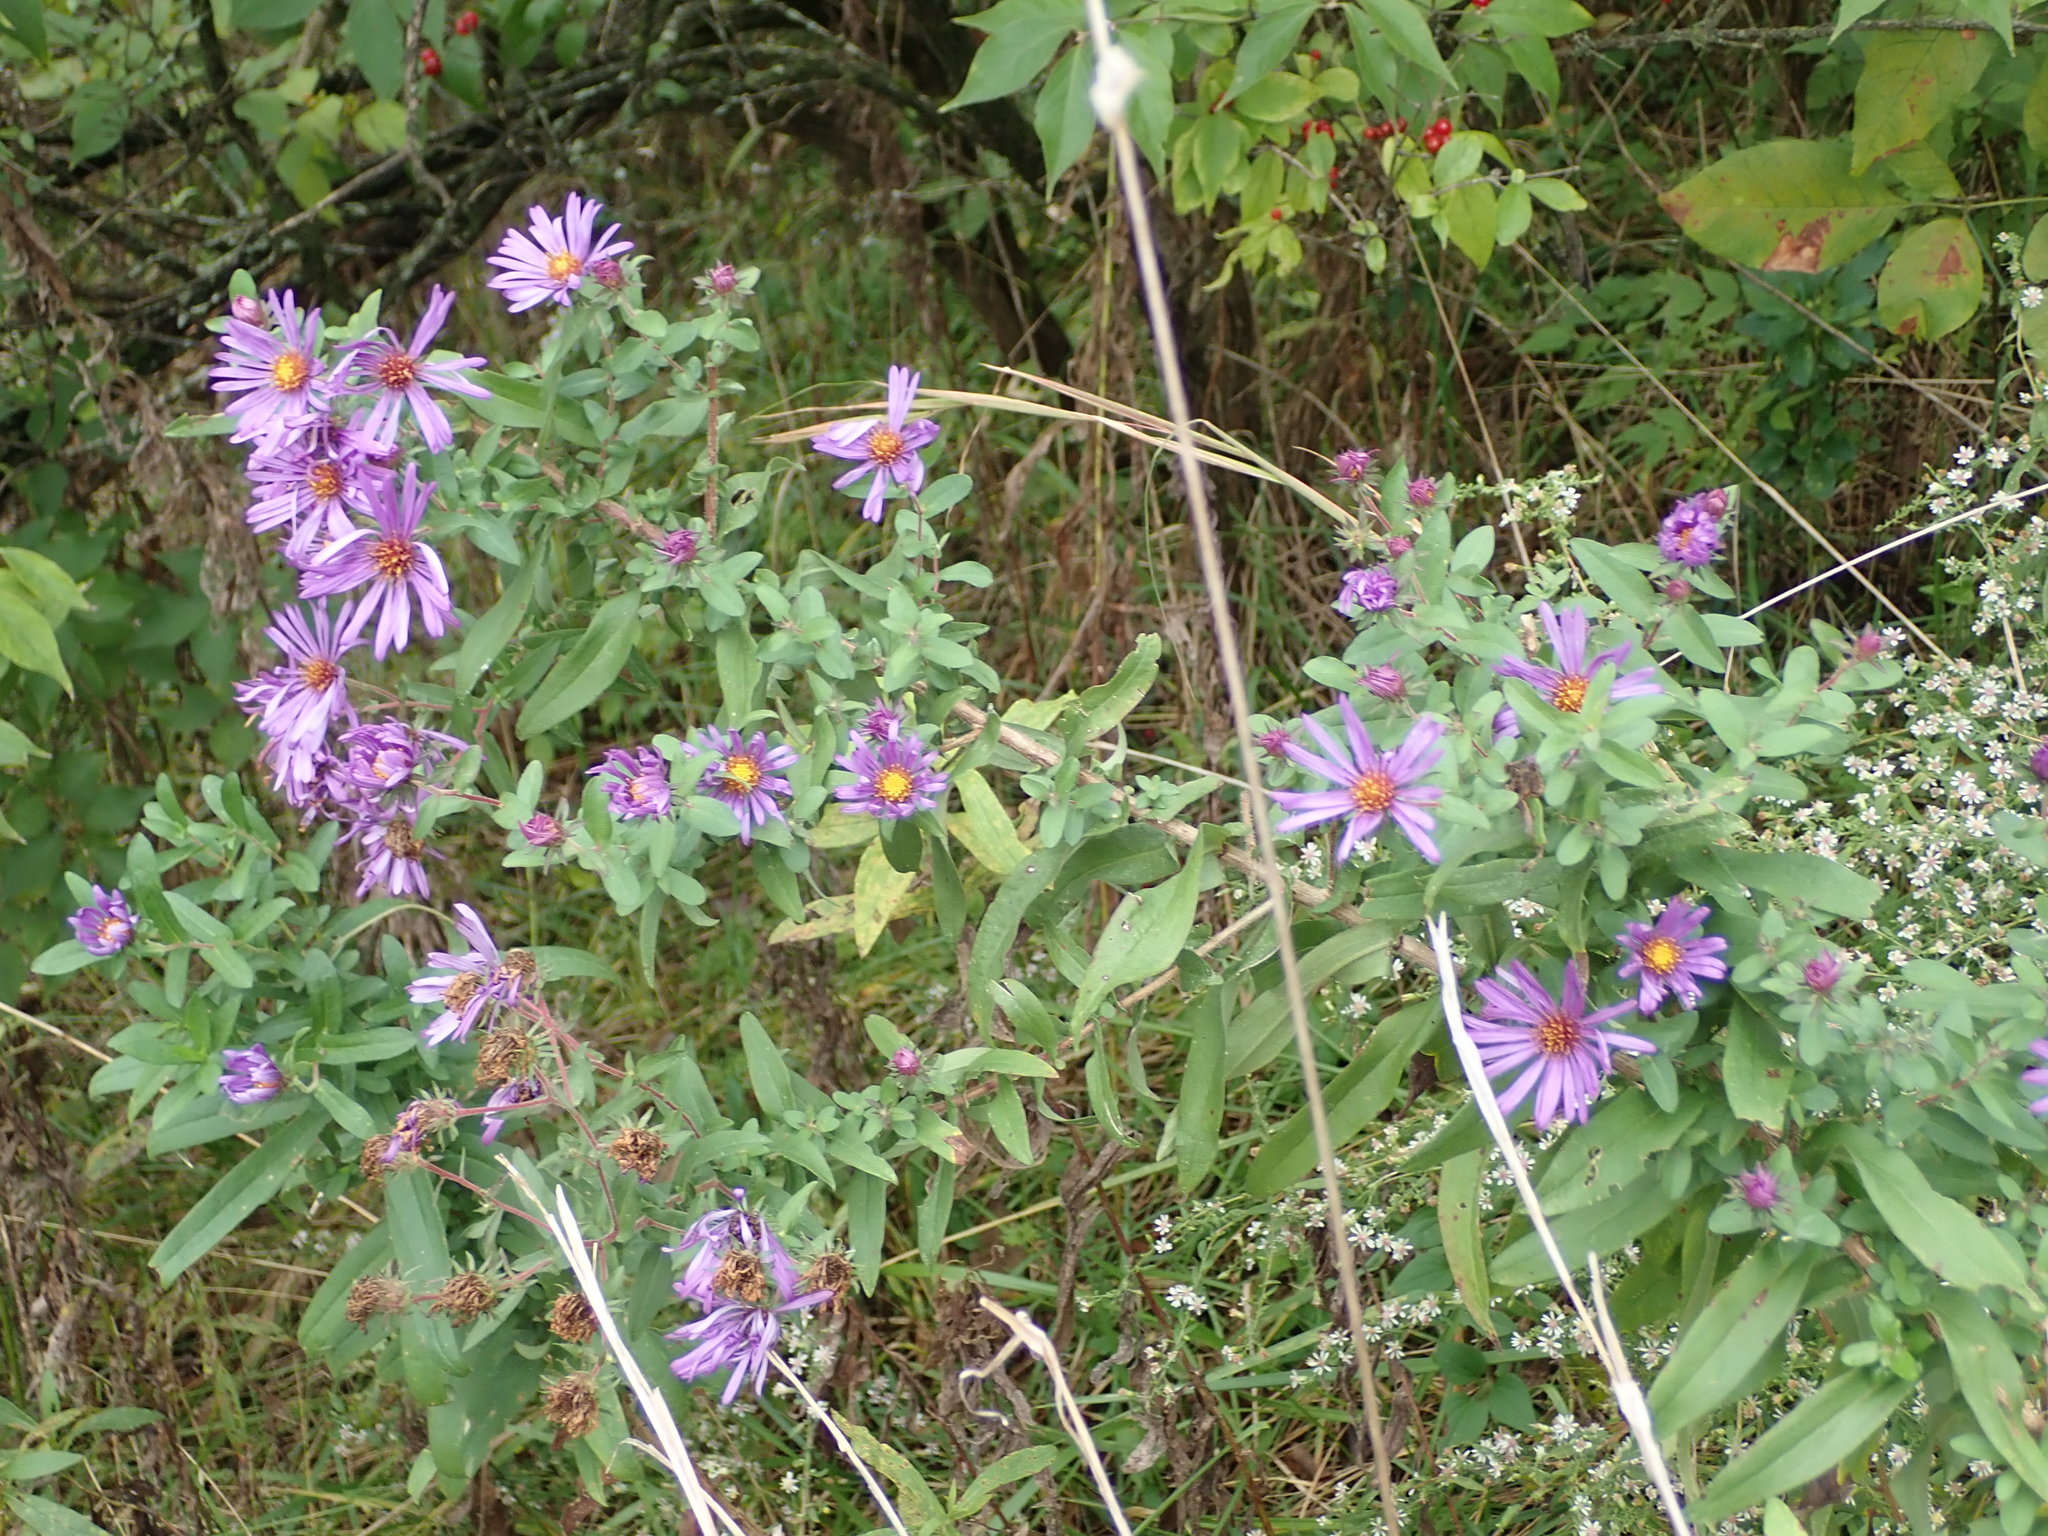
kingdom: Plantae
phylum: Tracheophyta
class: Magnoliopsida
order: Asterales
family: Asteraceae
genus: Symphyotrichum
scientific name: Symphyotrichum novae-angliae
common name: Michaelmas daisy
